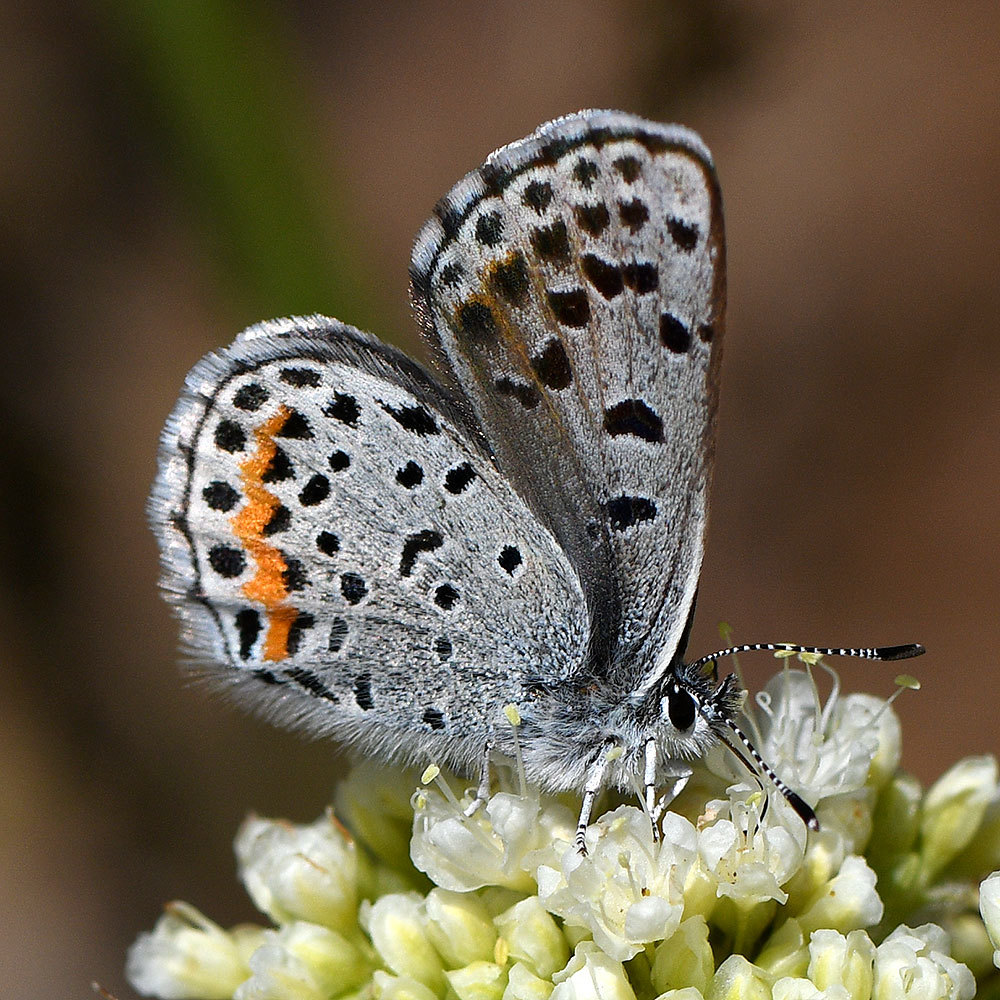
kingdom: Animalia
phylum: Arthropoda
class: Insecta
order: Lepidoptera
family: Lycaenidae
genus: Euphilotes
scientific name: Euphilotes enoptes
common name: Dotted blue
